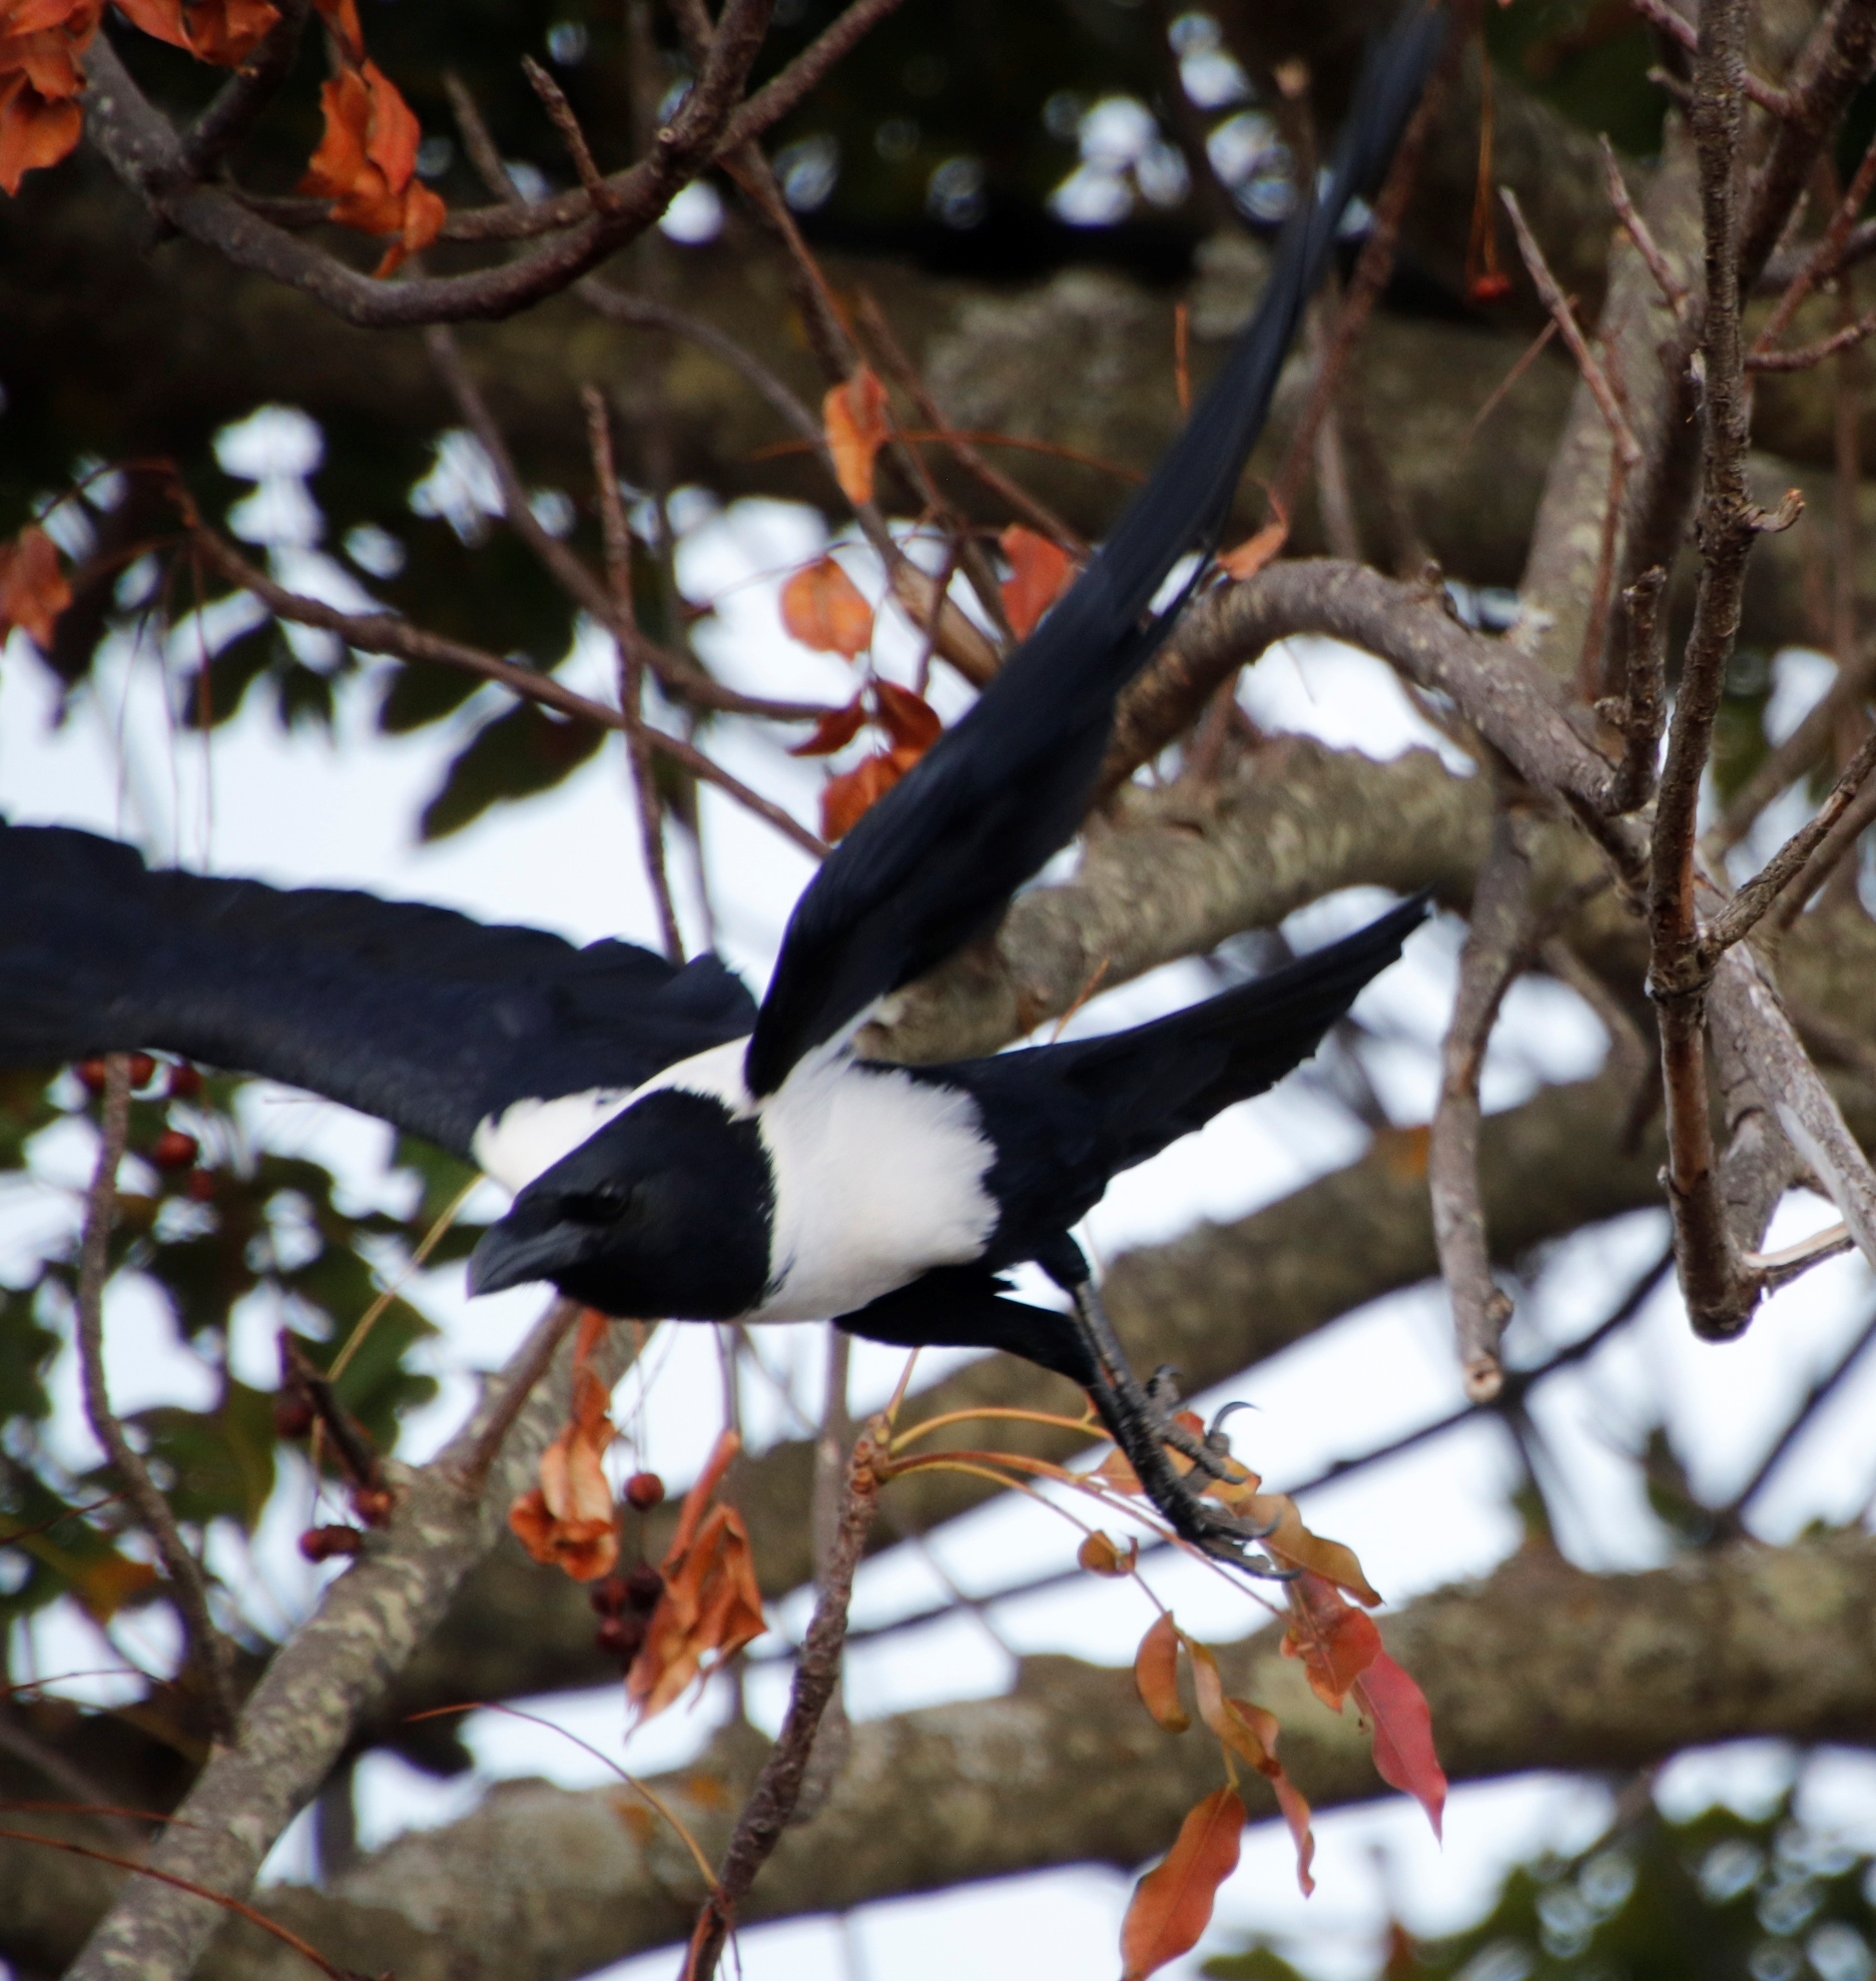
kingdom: Animalia
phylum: Chordata
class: Aves
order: Passeriformes
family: Corvidae
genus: Corvus
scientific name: Corvus albus
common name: Pied crow
